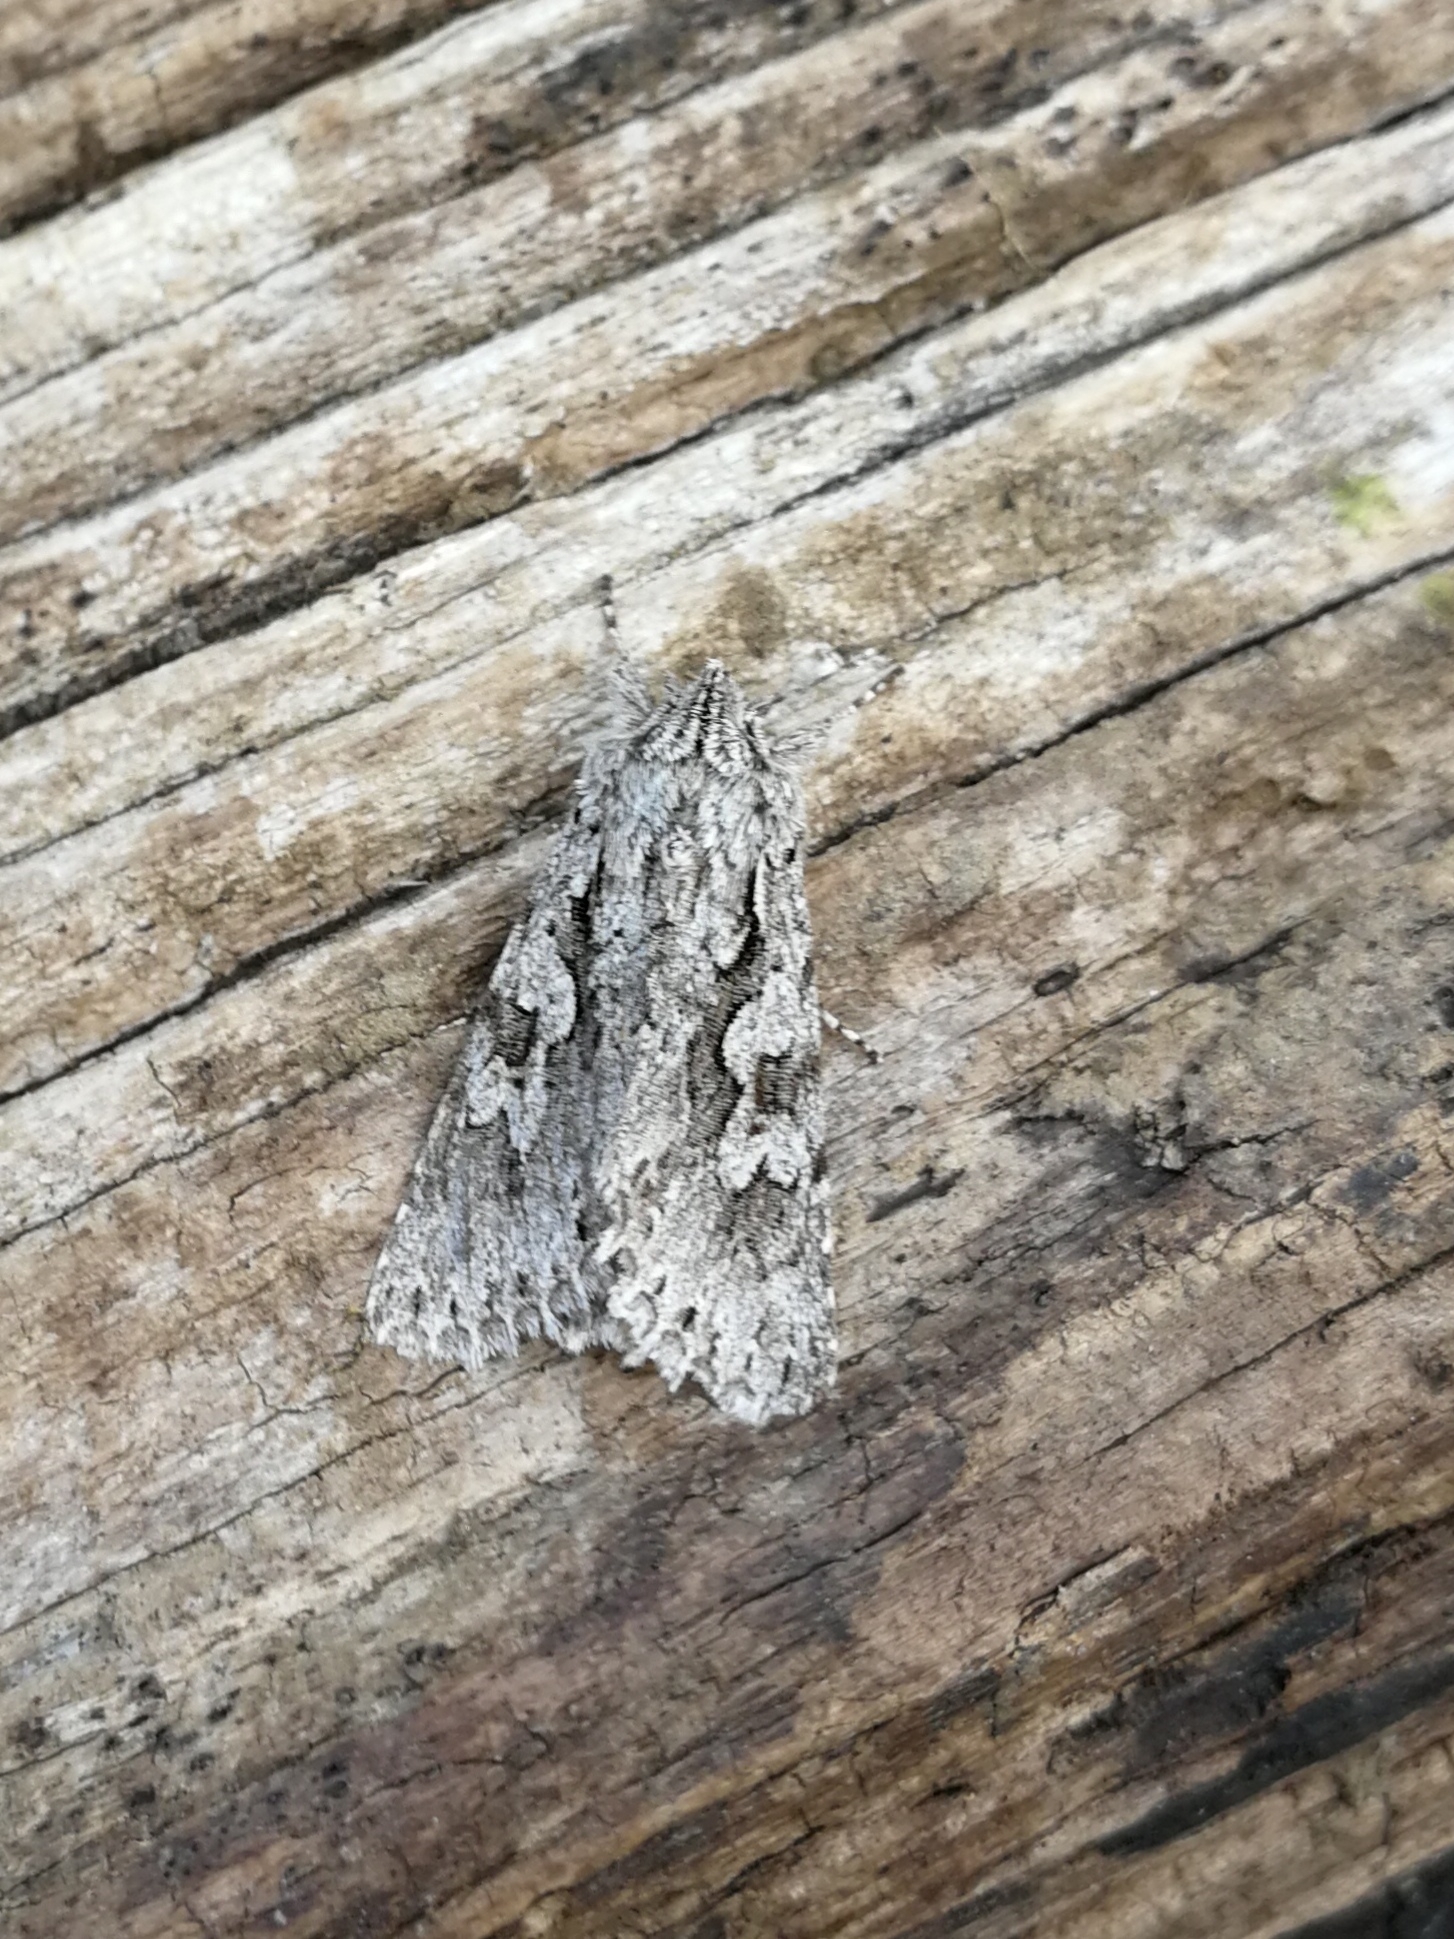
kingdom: Animalia
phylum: Arthropoda
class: Insecta
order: Lepidoptera
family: Noctuidae
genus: Xylocampa
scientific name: Xylocampa areola
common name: Early grey
